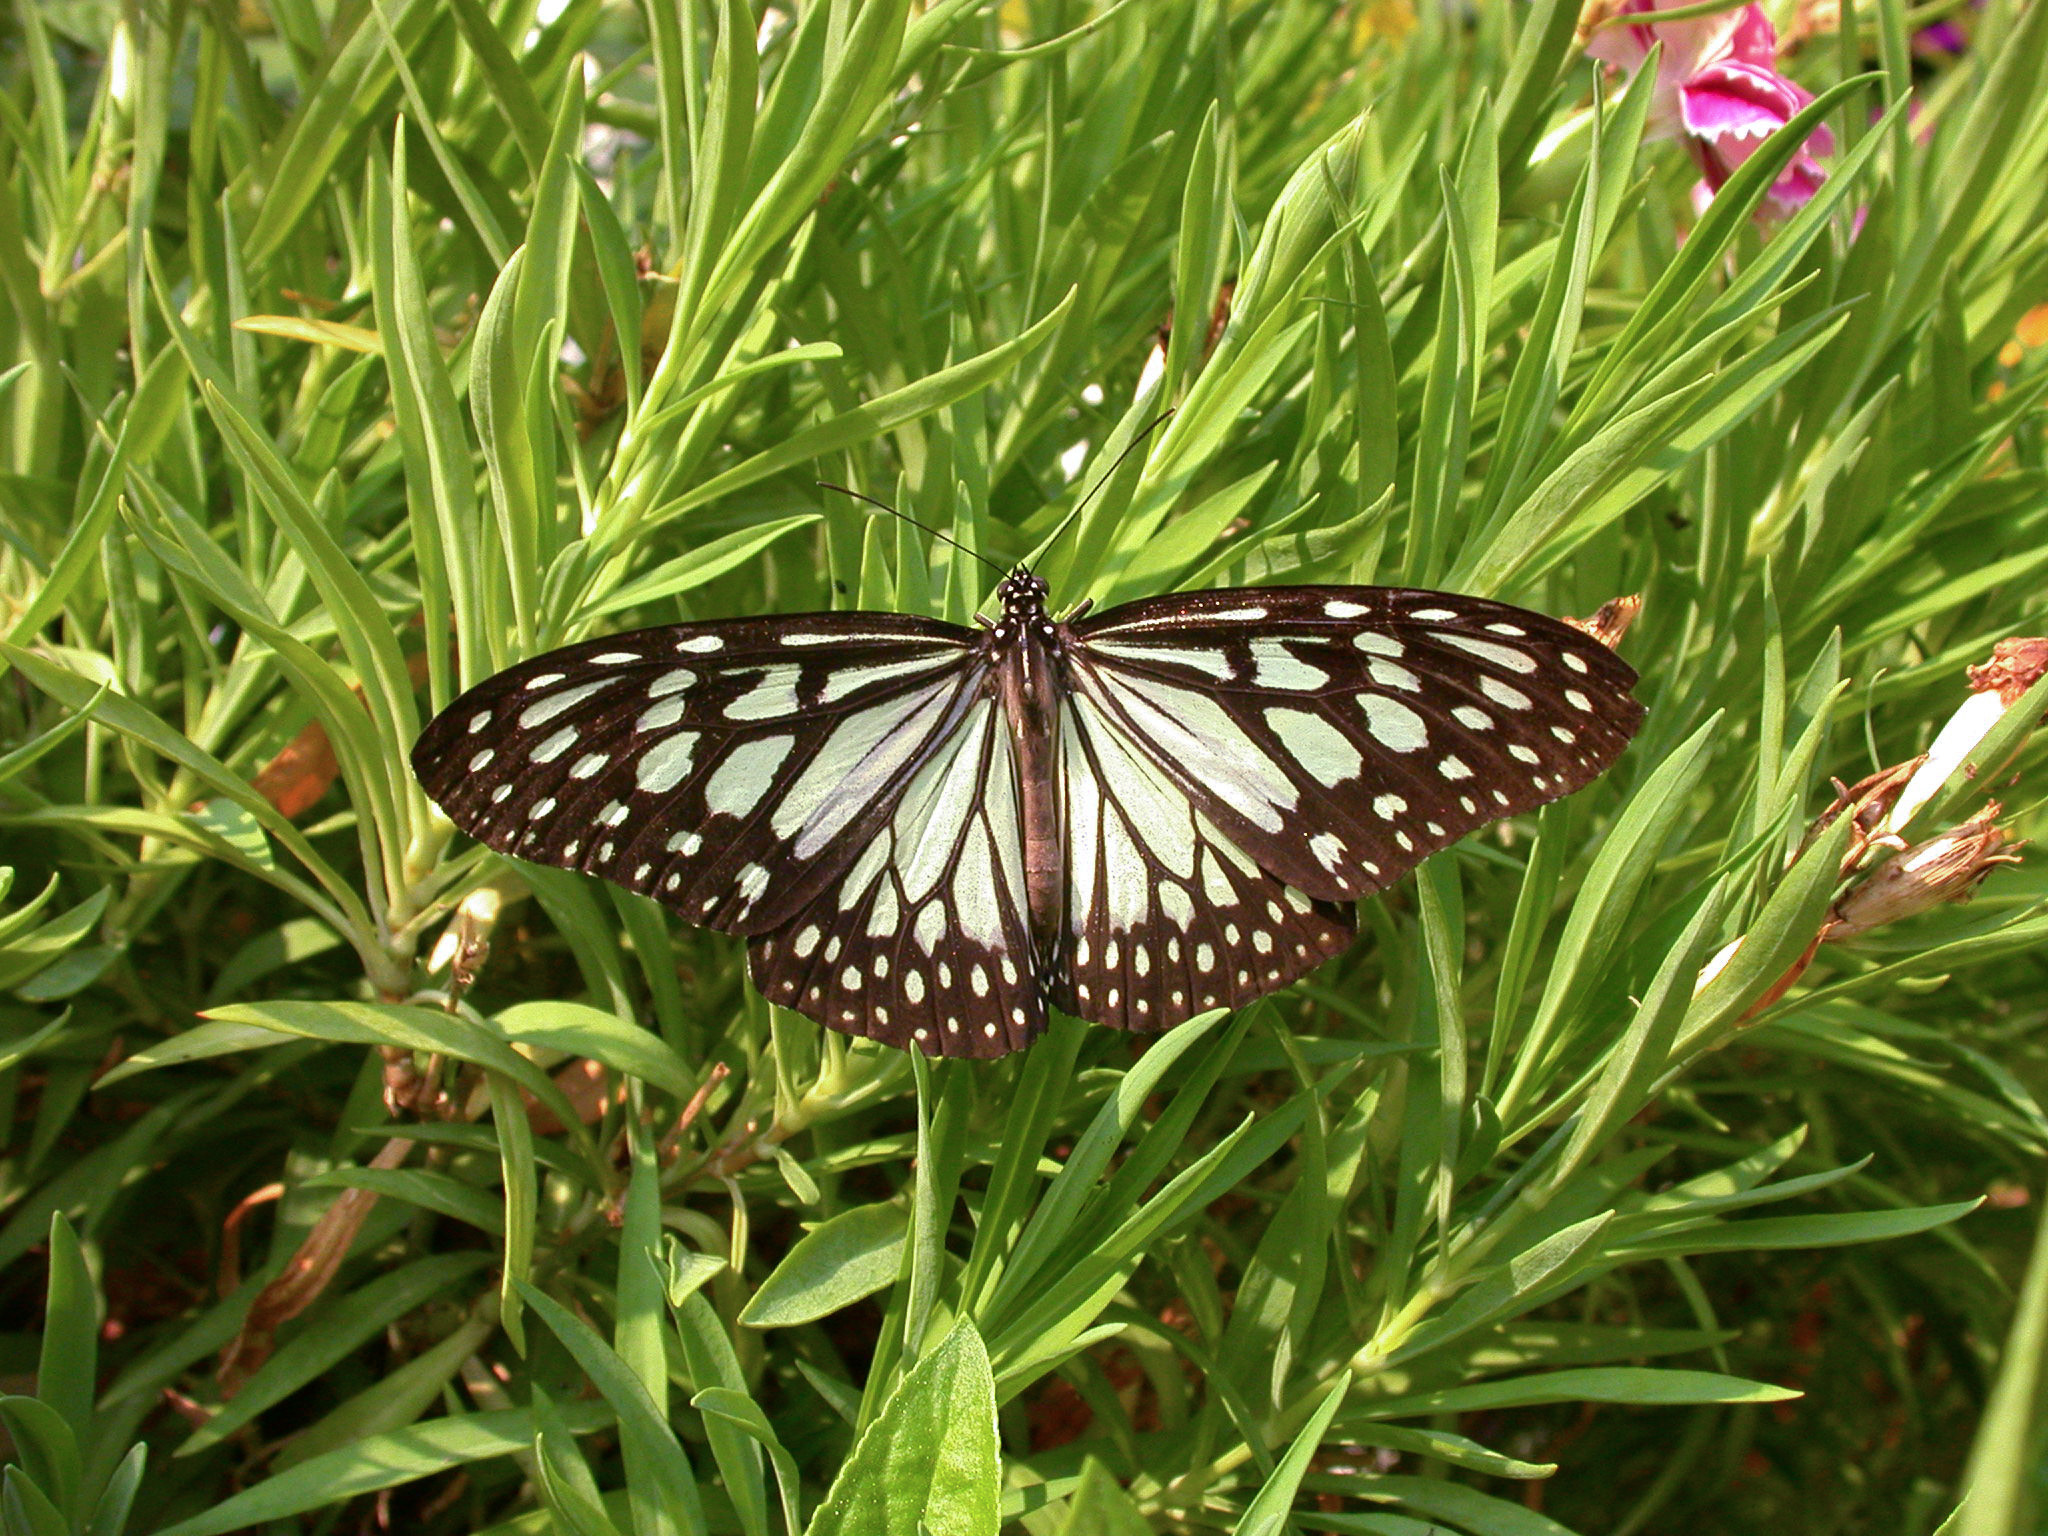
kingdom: Animalia
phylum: Arthropoda
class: Insecta
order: Lepidoptera
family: Nymphalidae
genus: Ideopsis
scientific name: Ideopsis juventa
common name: Grey glassy tiger
